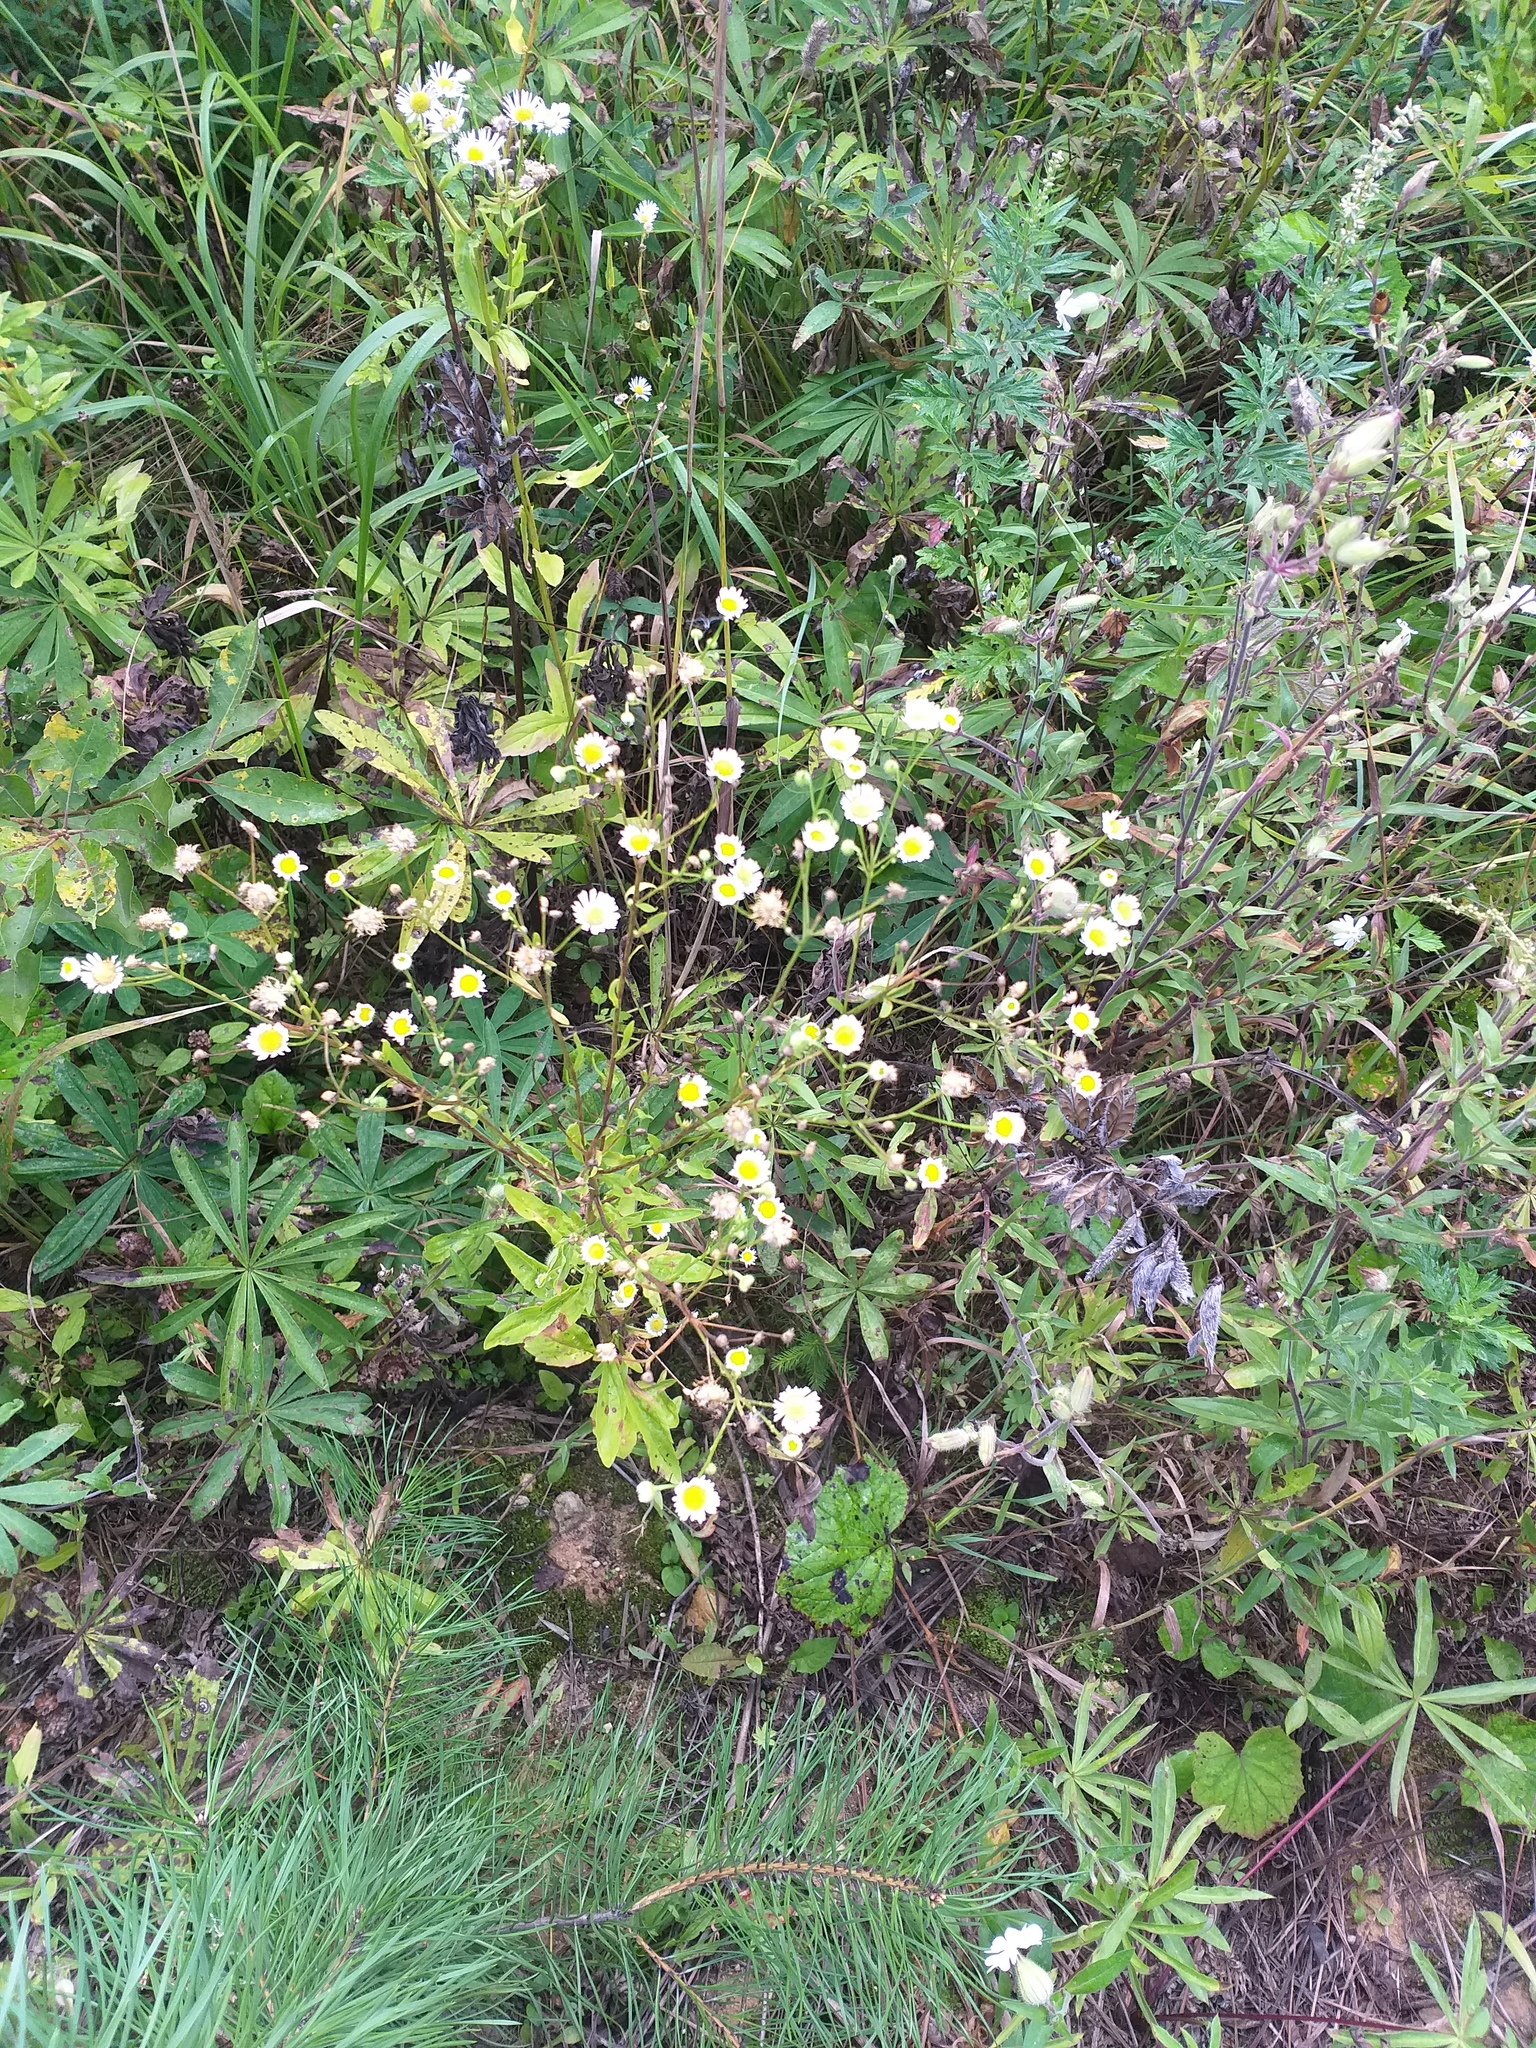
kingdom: Plantae
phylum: Tracheophyta
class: Magnoliopsida
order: Asterales
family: Asteraceae
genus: Erigeron
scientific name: Erigeron annuus
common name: Tall fleabane
